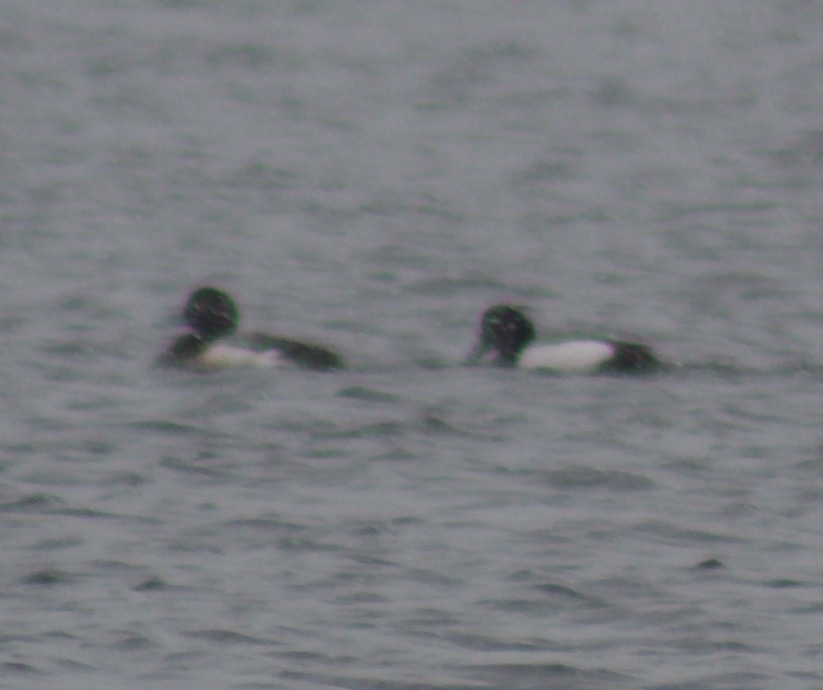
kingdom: Animalia
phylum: Chordata
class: Aves
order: Anseriformes
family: Anatidae
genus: Aythya
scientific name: Aythya marila
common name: Greater scaup
